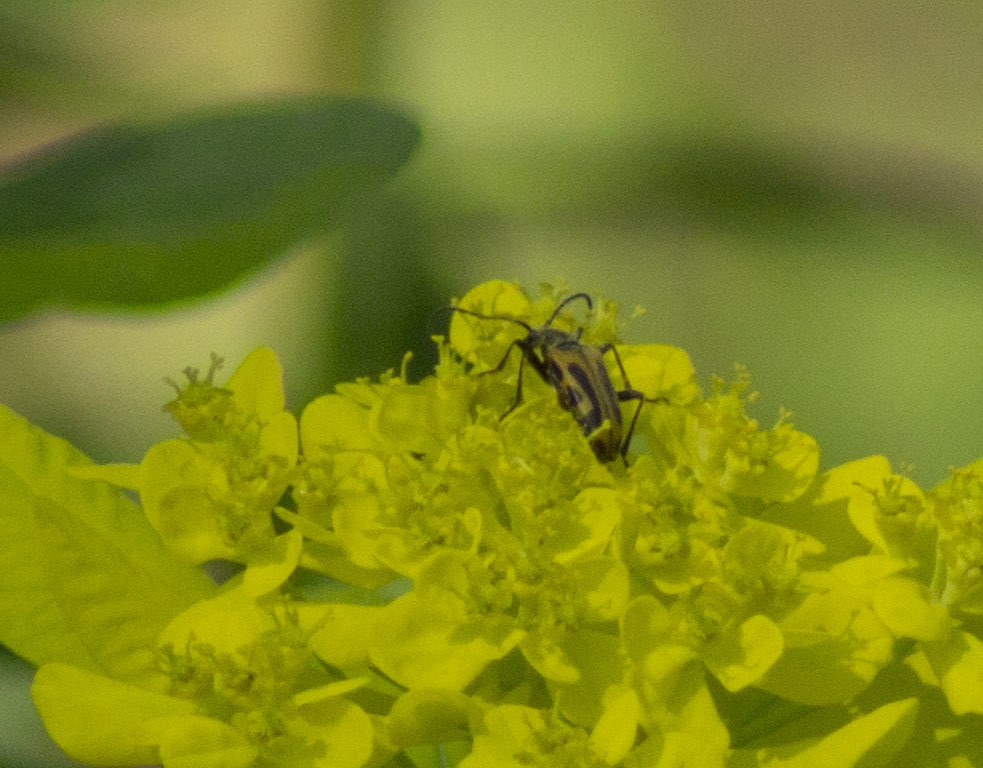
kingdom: Animalia
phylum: Arthropoda
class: Insecta
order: Coleoptera
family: Cerambycidae
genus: Brachyta
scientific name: Brachyta interrogationis
